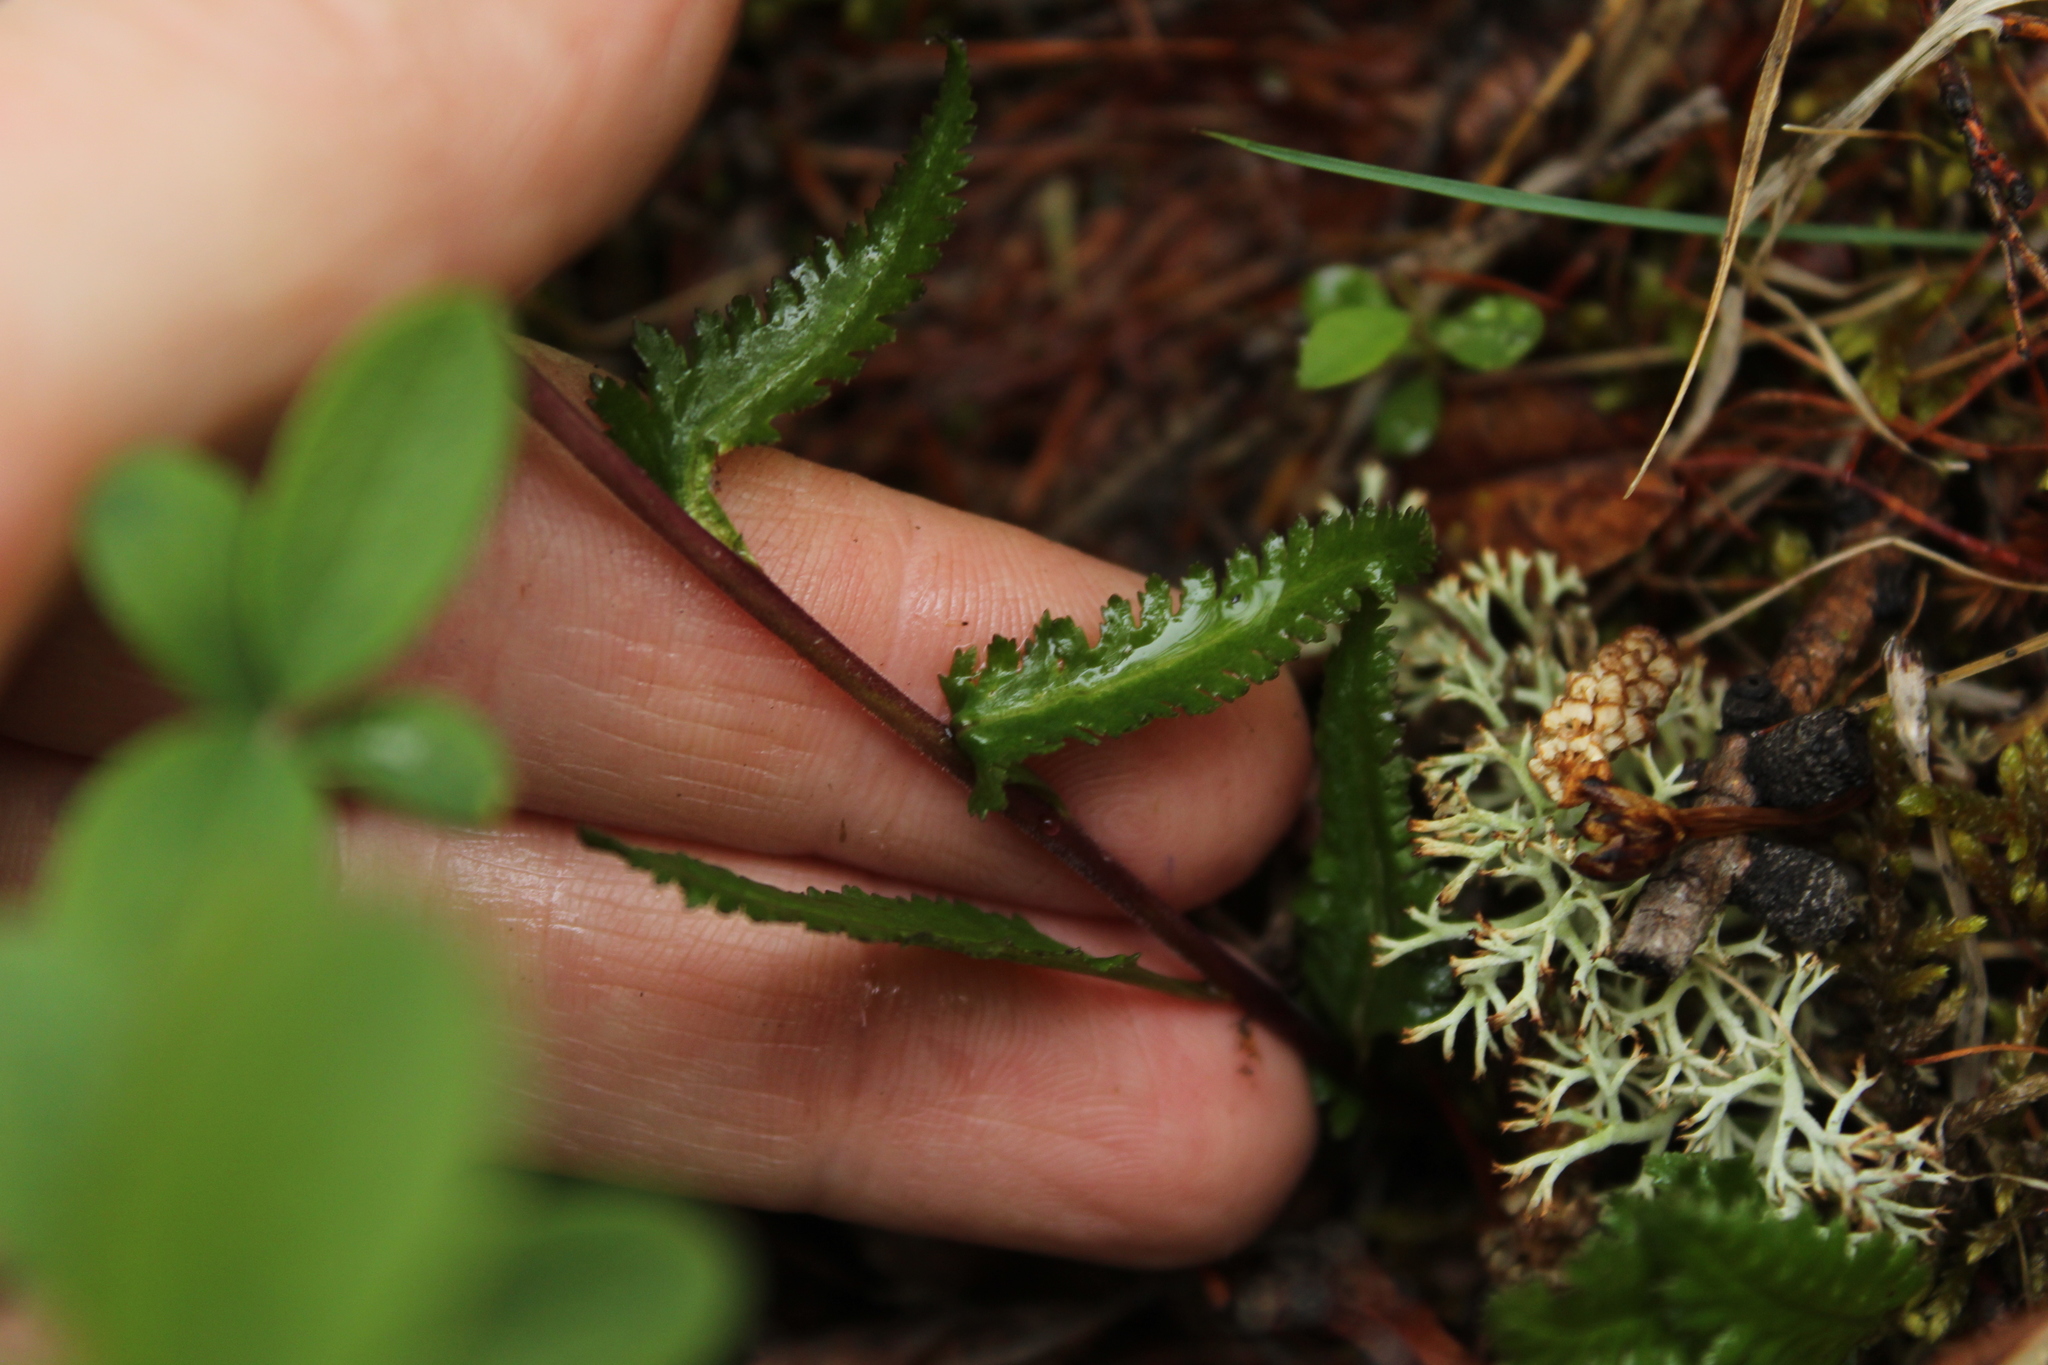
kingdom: Plantae
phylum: Tracheophyta
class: Magnoliopsida
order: Lamiales
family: Orobanchaceae
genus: Pedicularis
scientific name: Pedicularis lapponica
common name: Lapland lousewort
